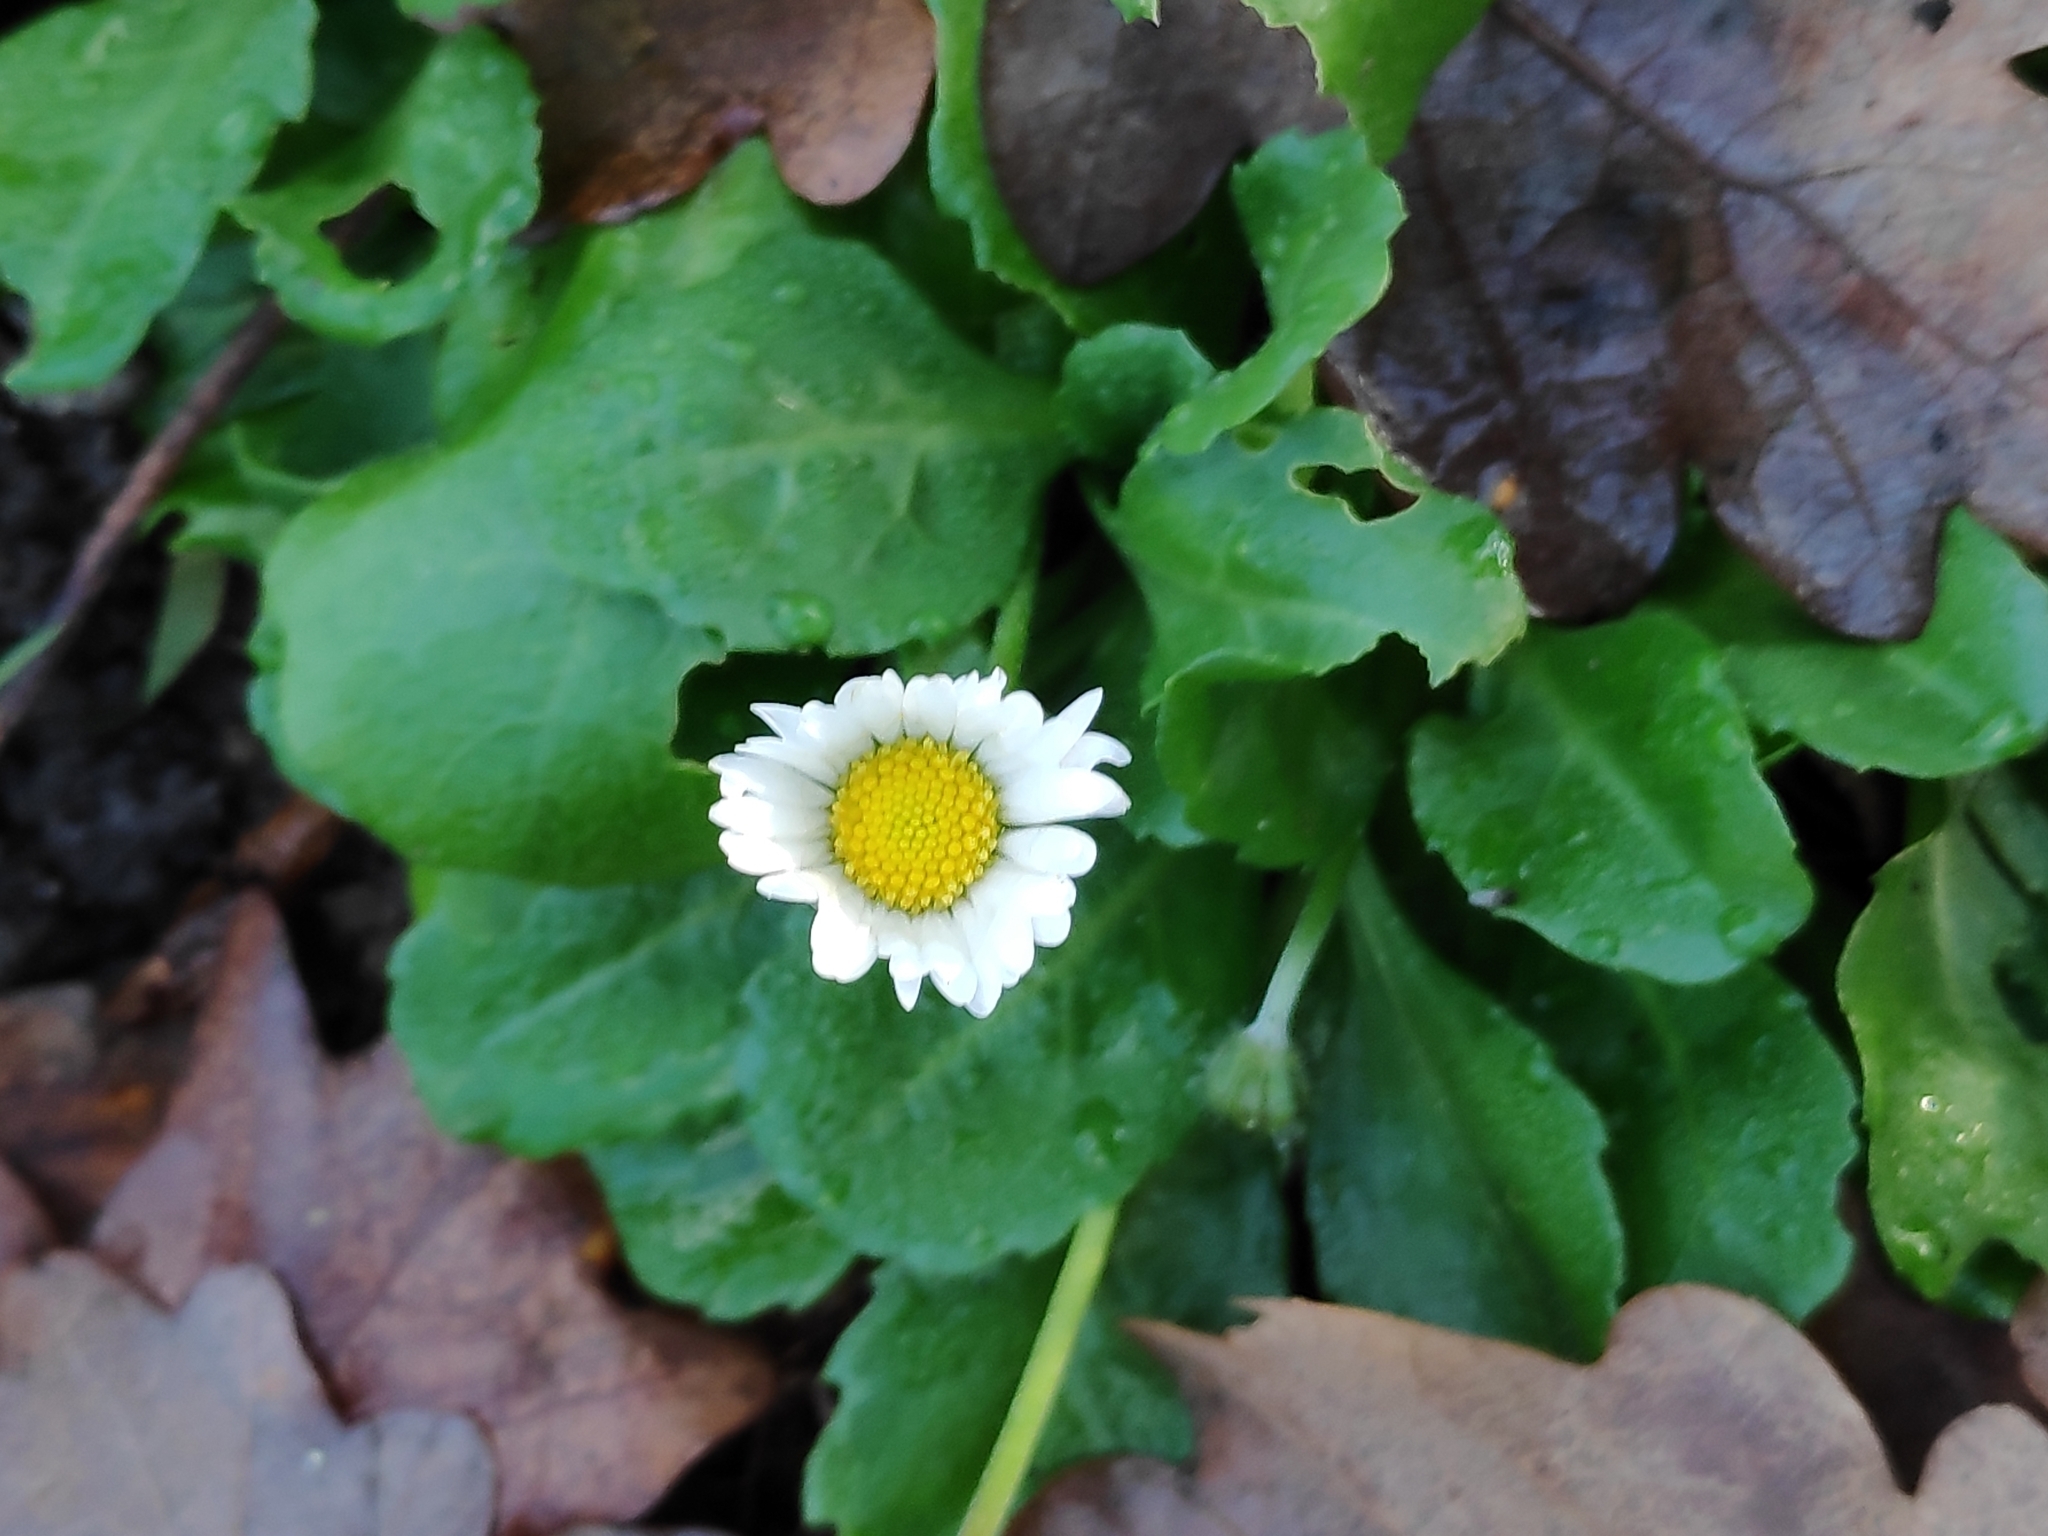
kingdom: Plantae
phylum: Tracheophyta
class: Magnoliopsida
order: Asterales
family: Asteraceae
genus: Bellis
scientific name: Bellis perennis
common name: Lawndaisy
